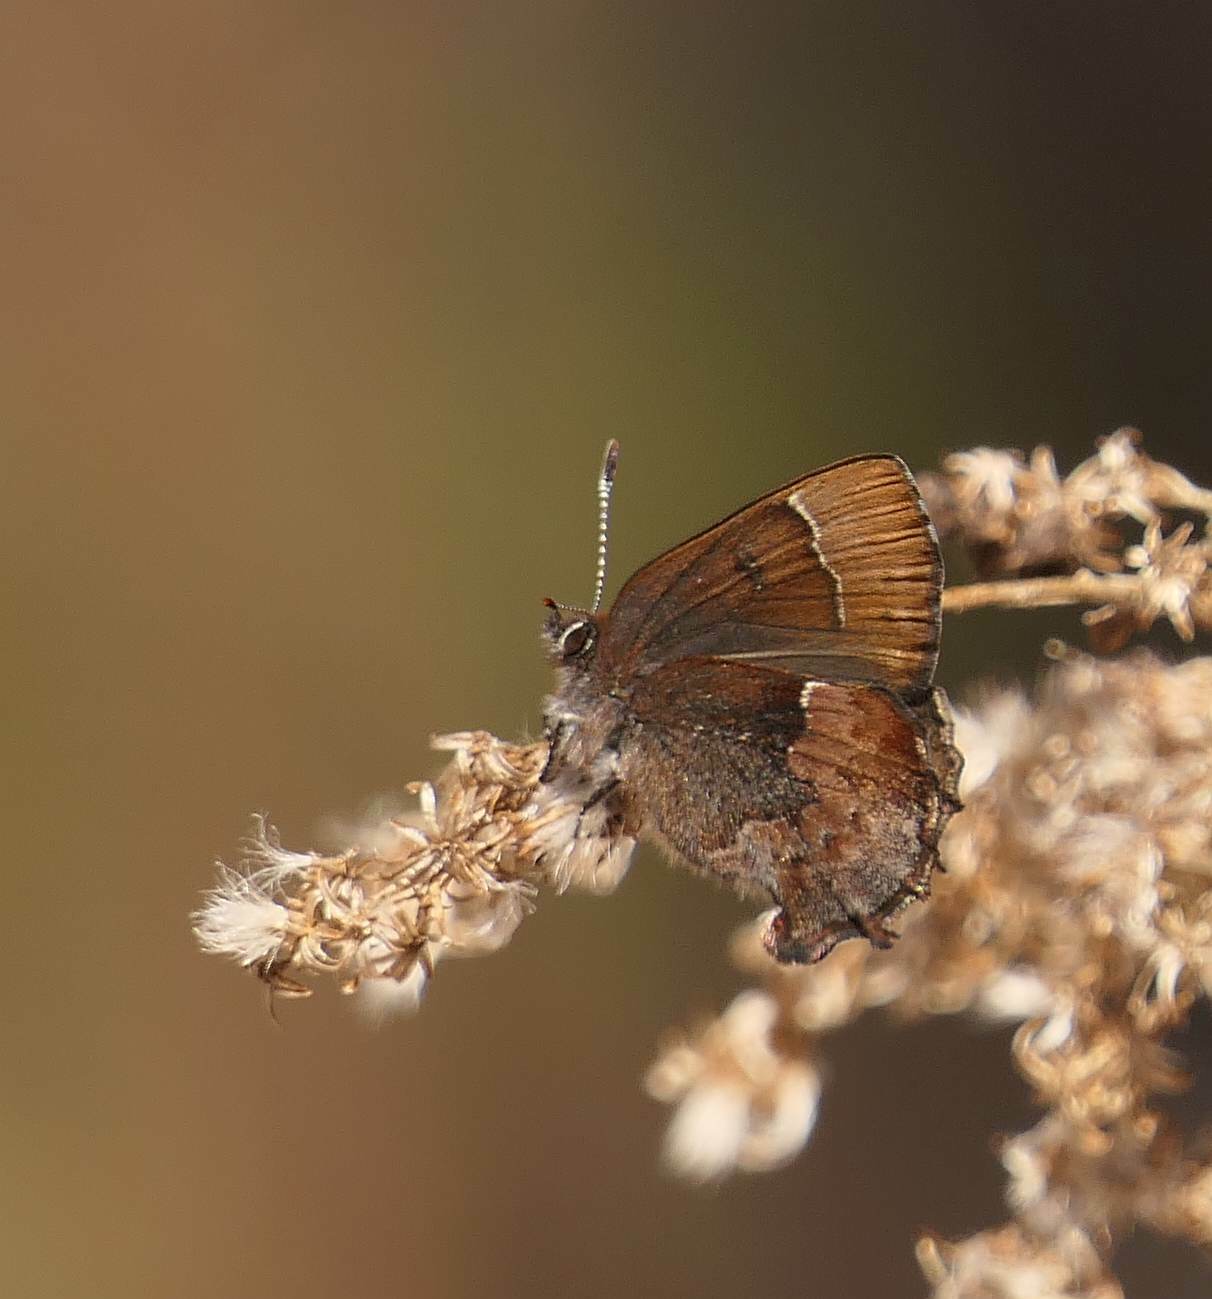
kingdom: Animalia
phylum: Arthropoda
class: Insecta
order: Lepidoptera
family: Lycaenidae
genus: Incisalia
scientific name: Incisalia henrici
